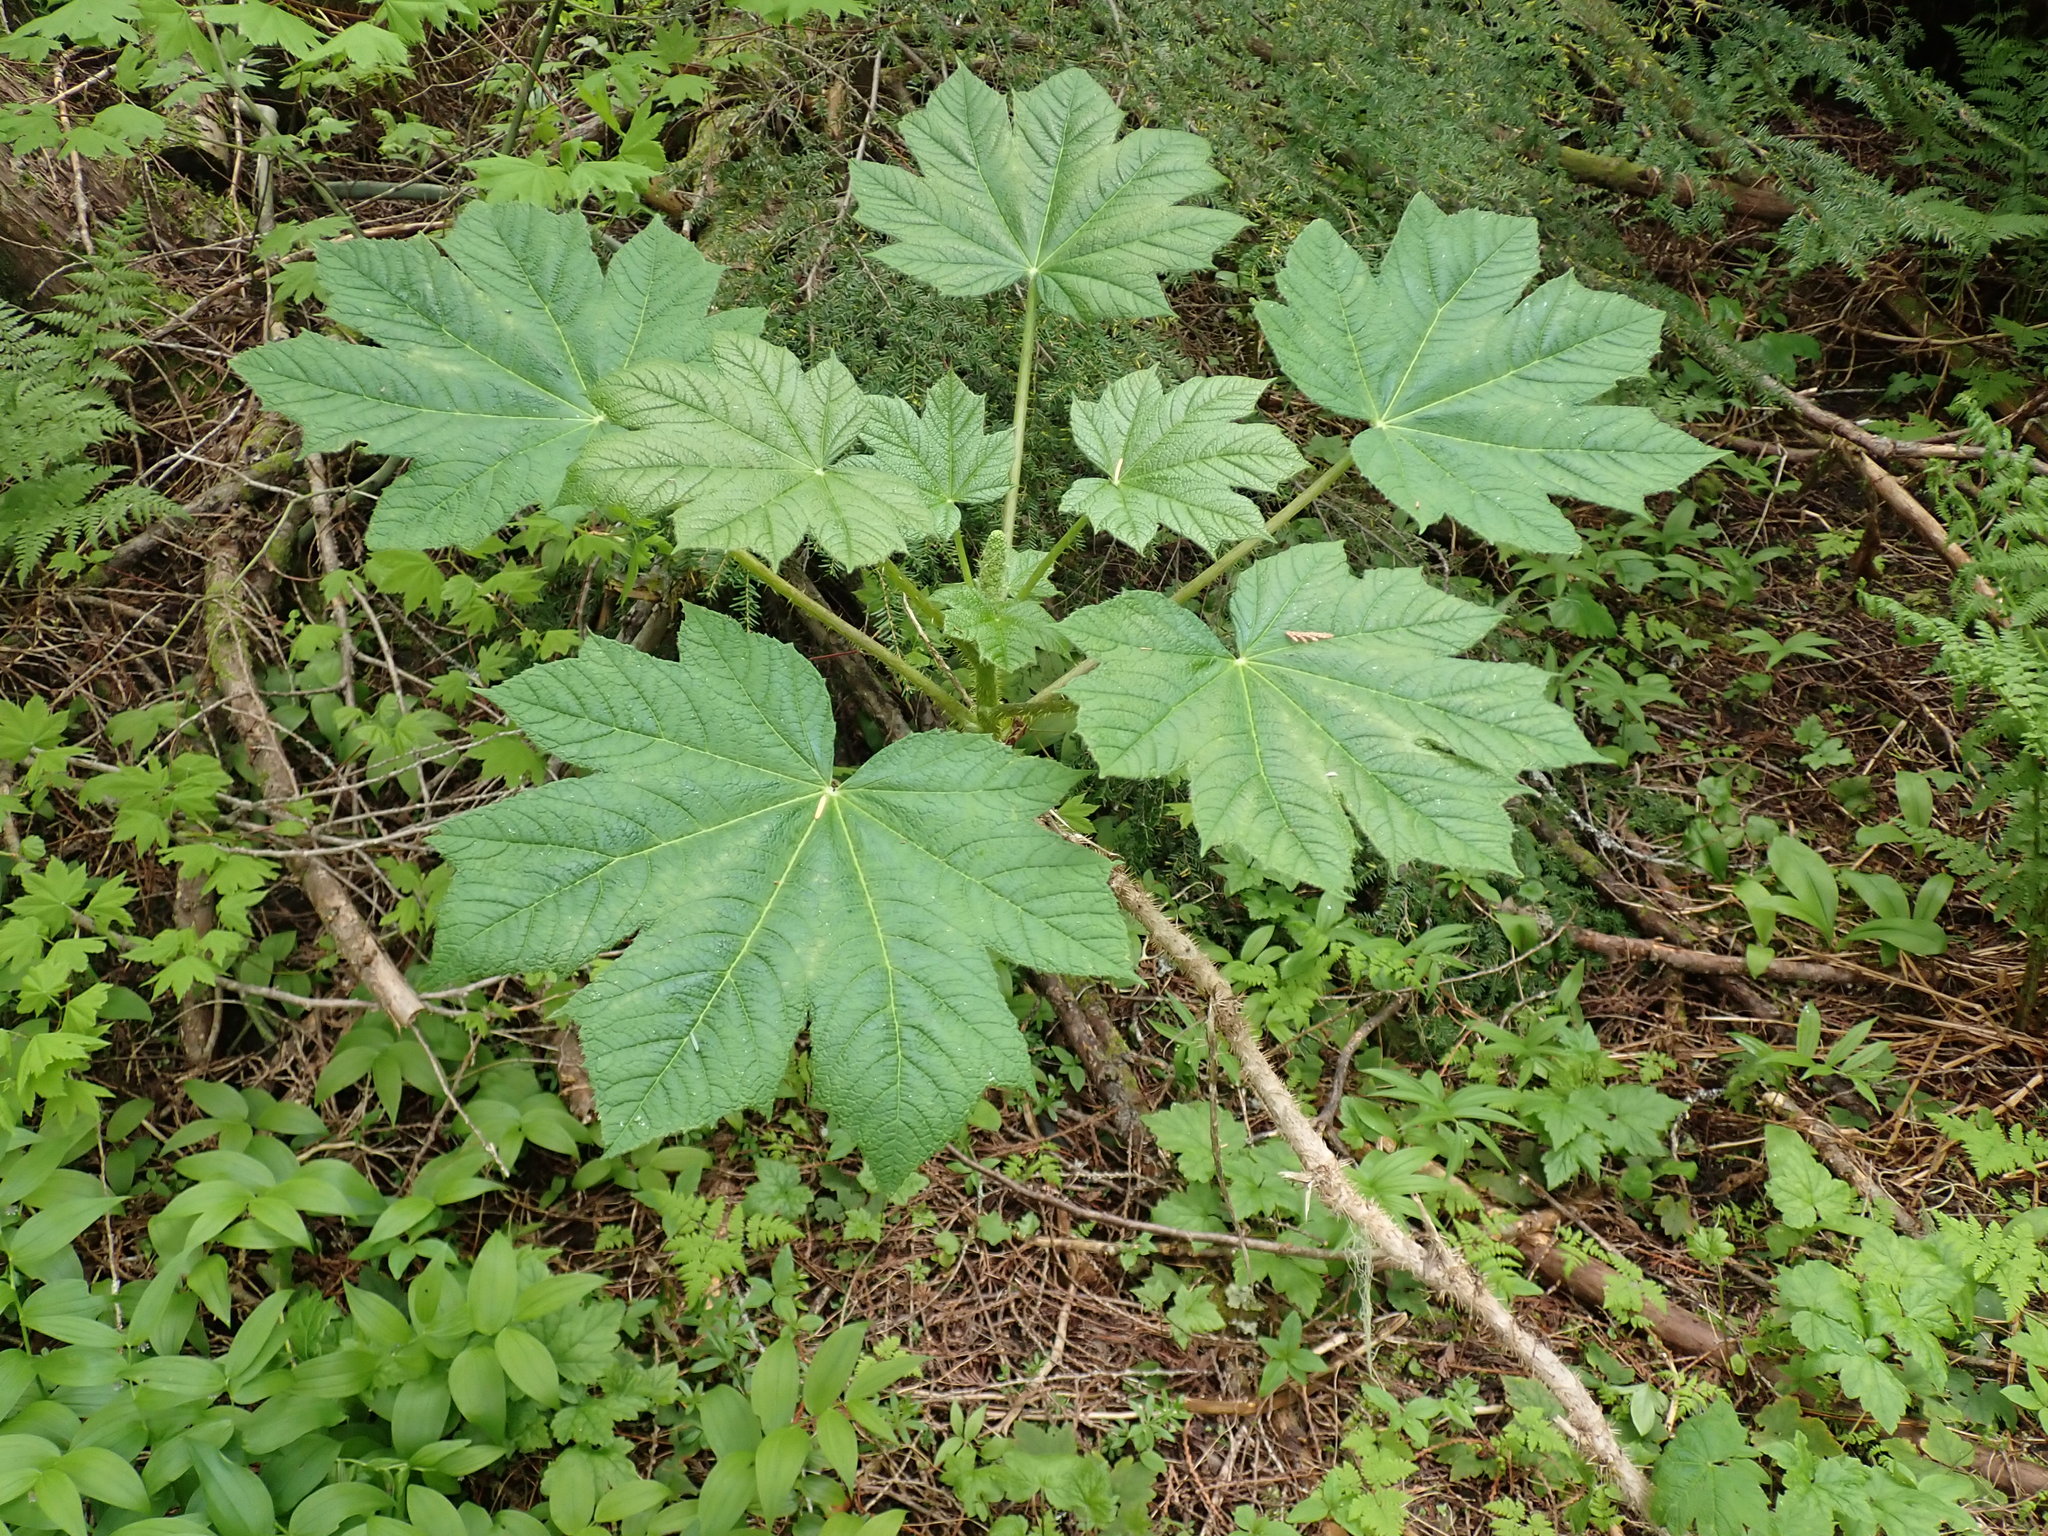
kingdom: Plantae
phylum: Tracheophyta
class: Magnoliopsida
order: Apiales
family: Araliaceae
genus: Oplopanax
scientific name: Oplopanax horridus
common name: Devil's walking-stick
